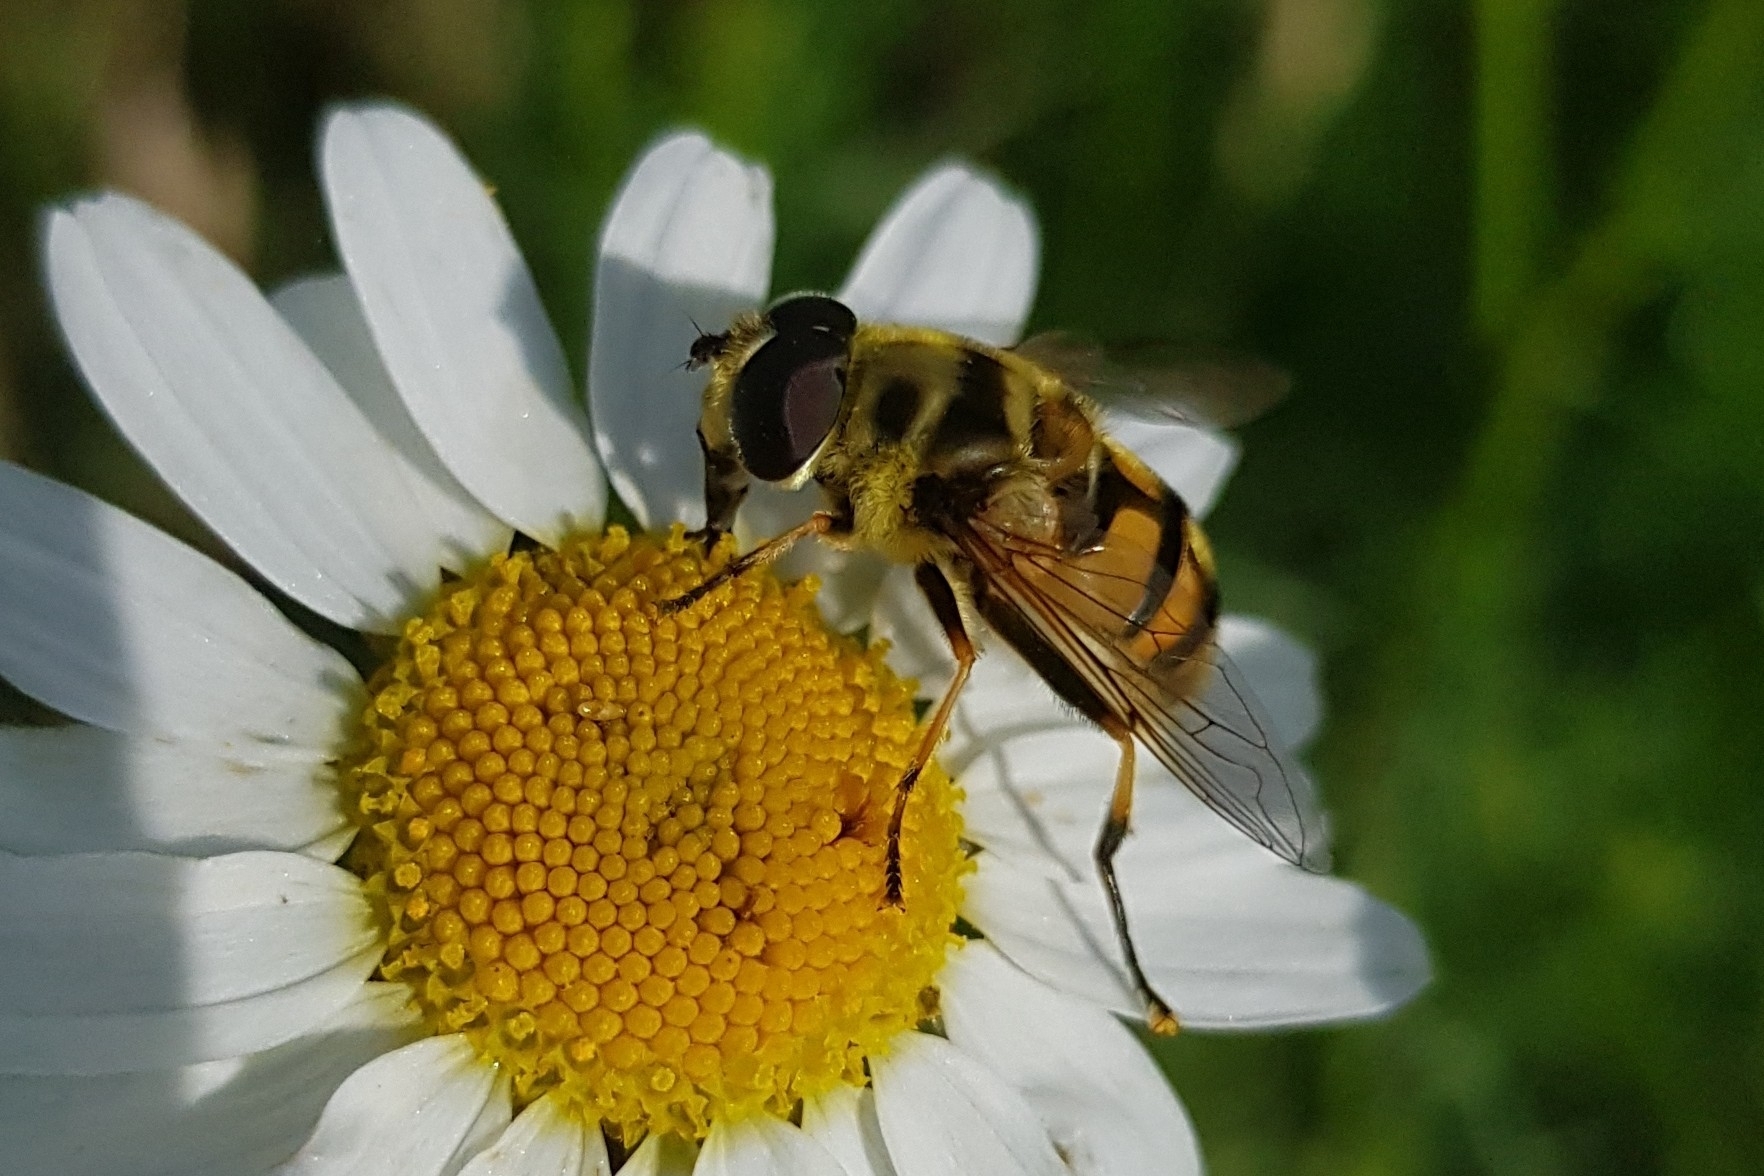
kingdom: Animalia
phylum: Arthropoda
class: Insecta
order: Diptera
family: Syrphidae
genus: Myathropa
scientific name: Myathropa florea
